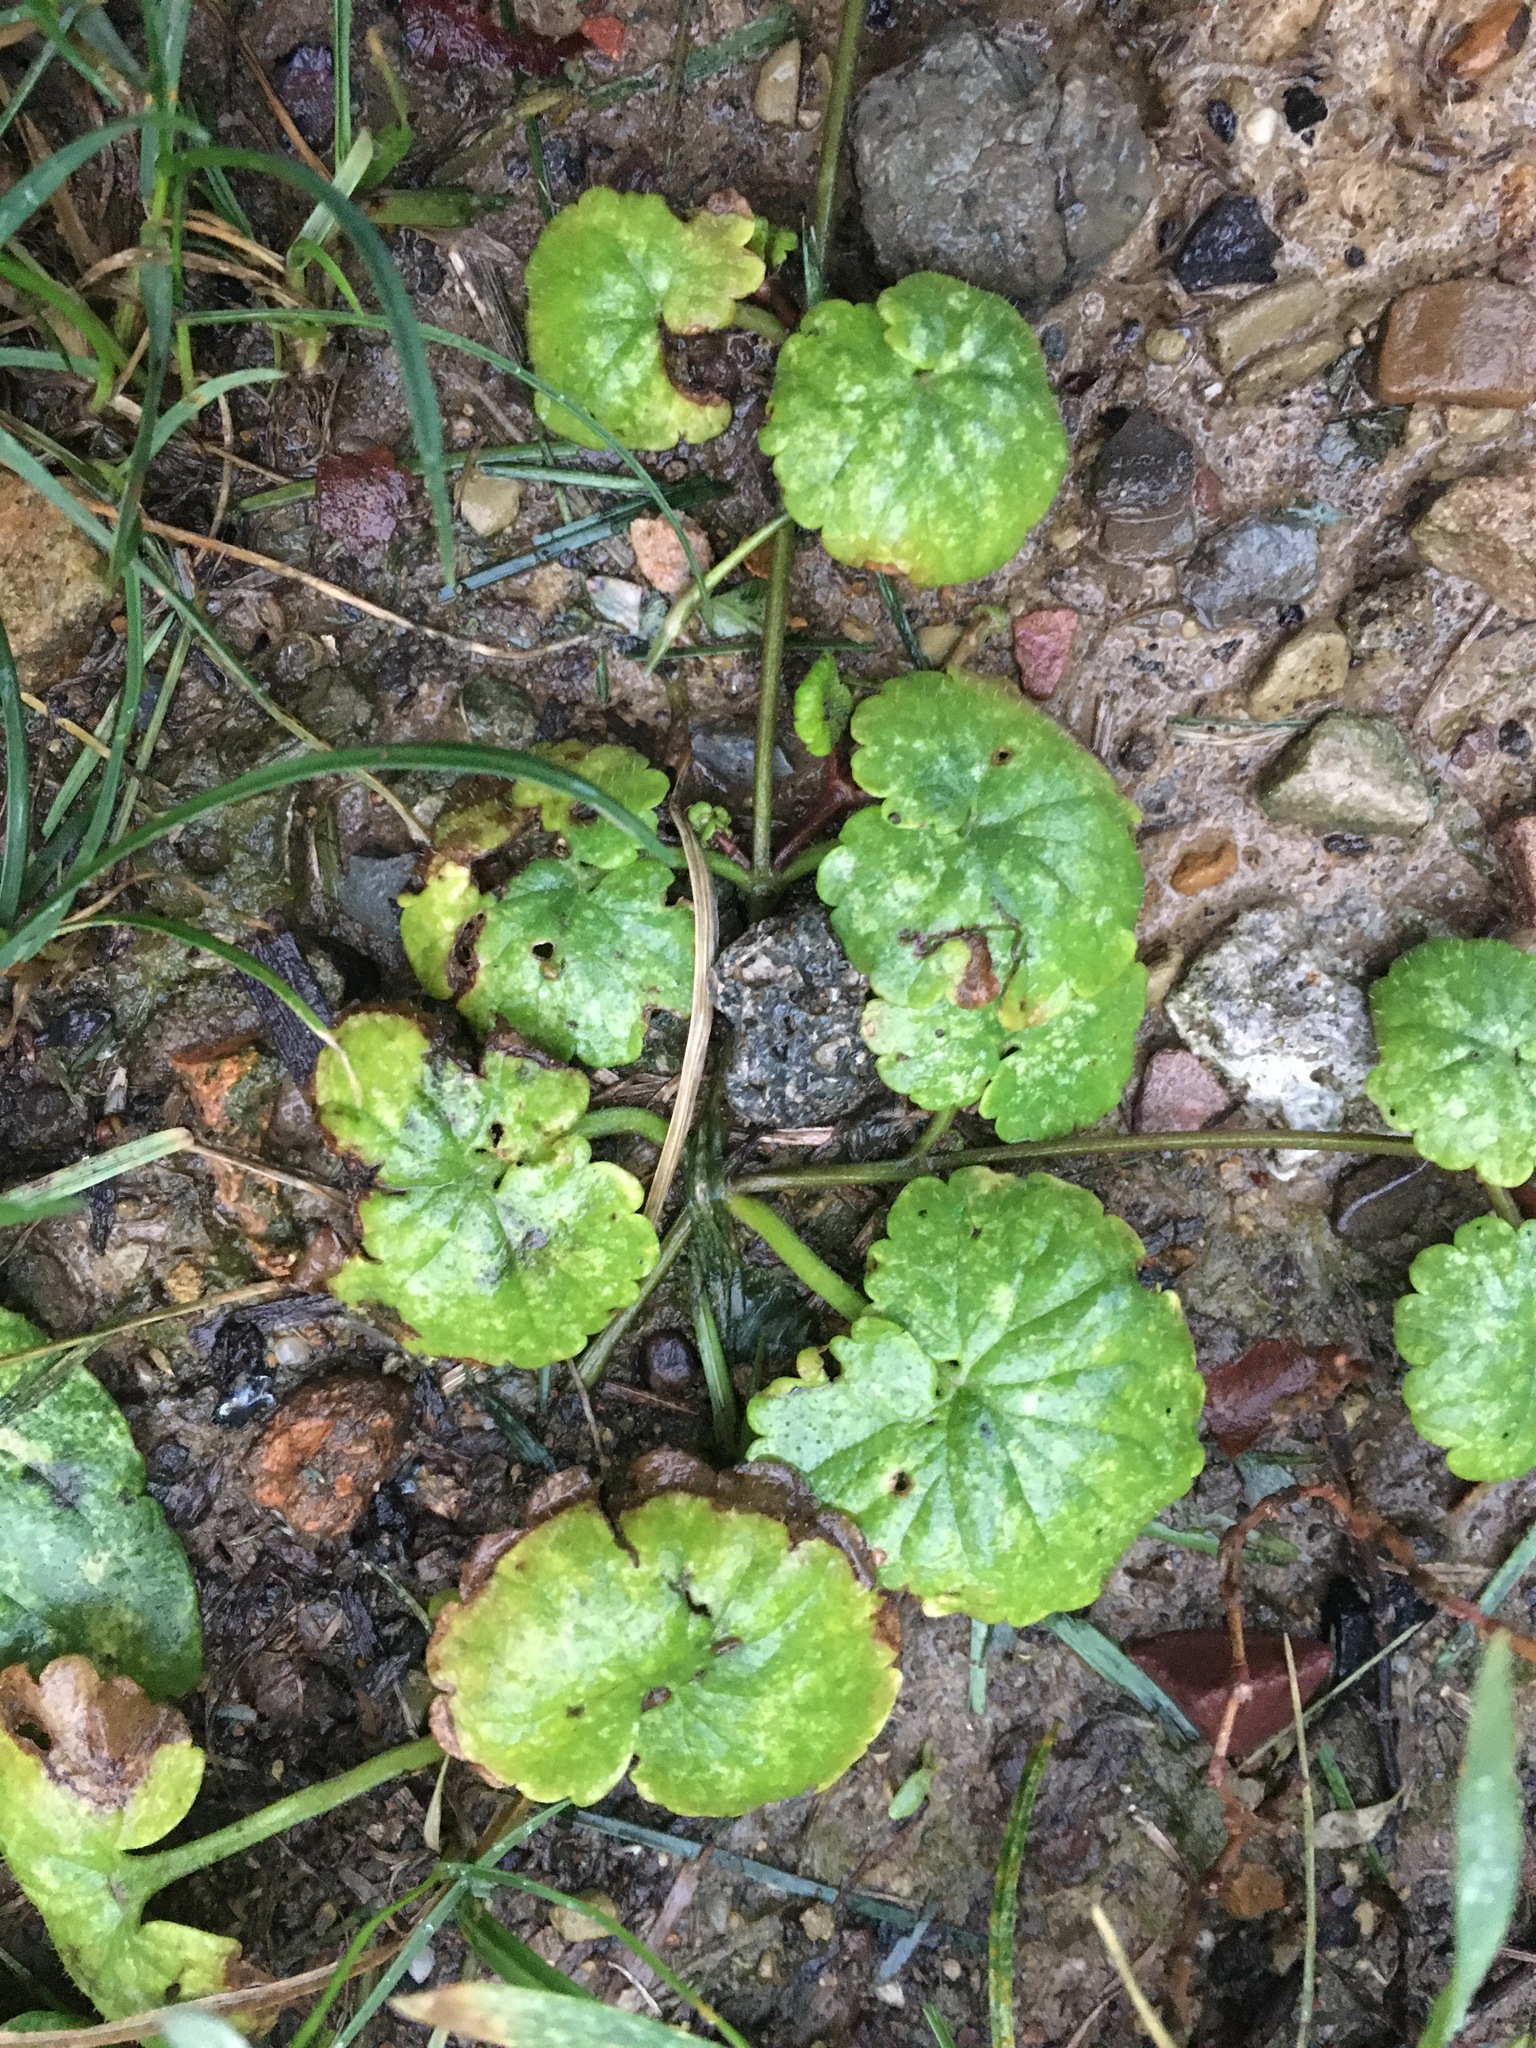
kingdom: Plantae
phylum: Tracheophyta
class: Magnoliopsida
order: Lamiales
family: Lamiaceae
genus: Glechoma
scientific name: Glechoma hederacea
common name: Ground ivy
